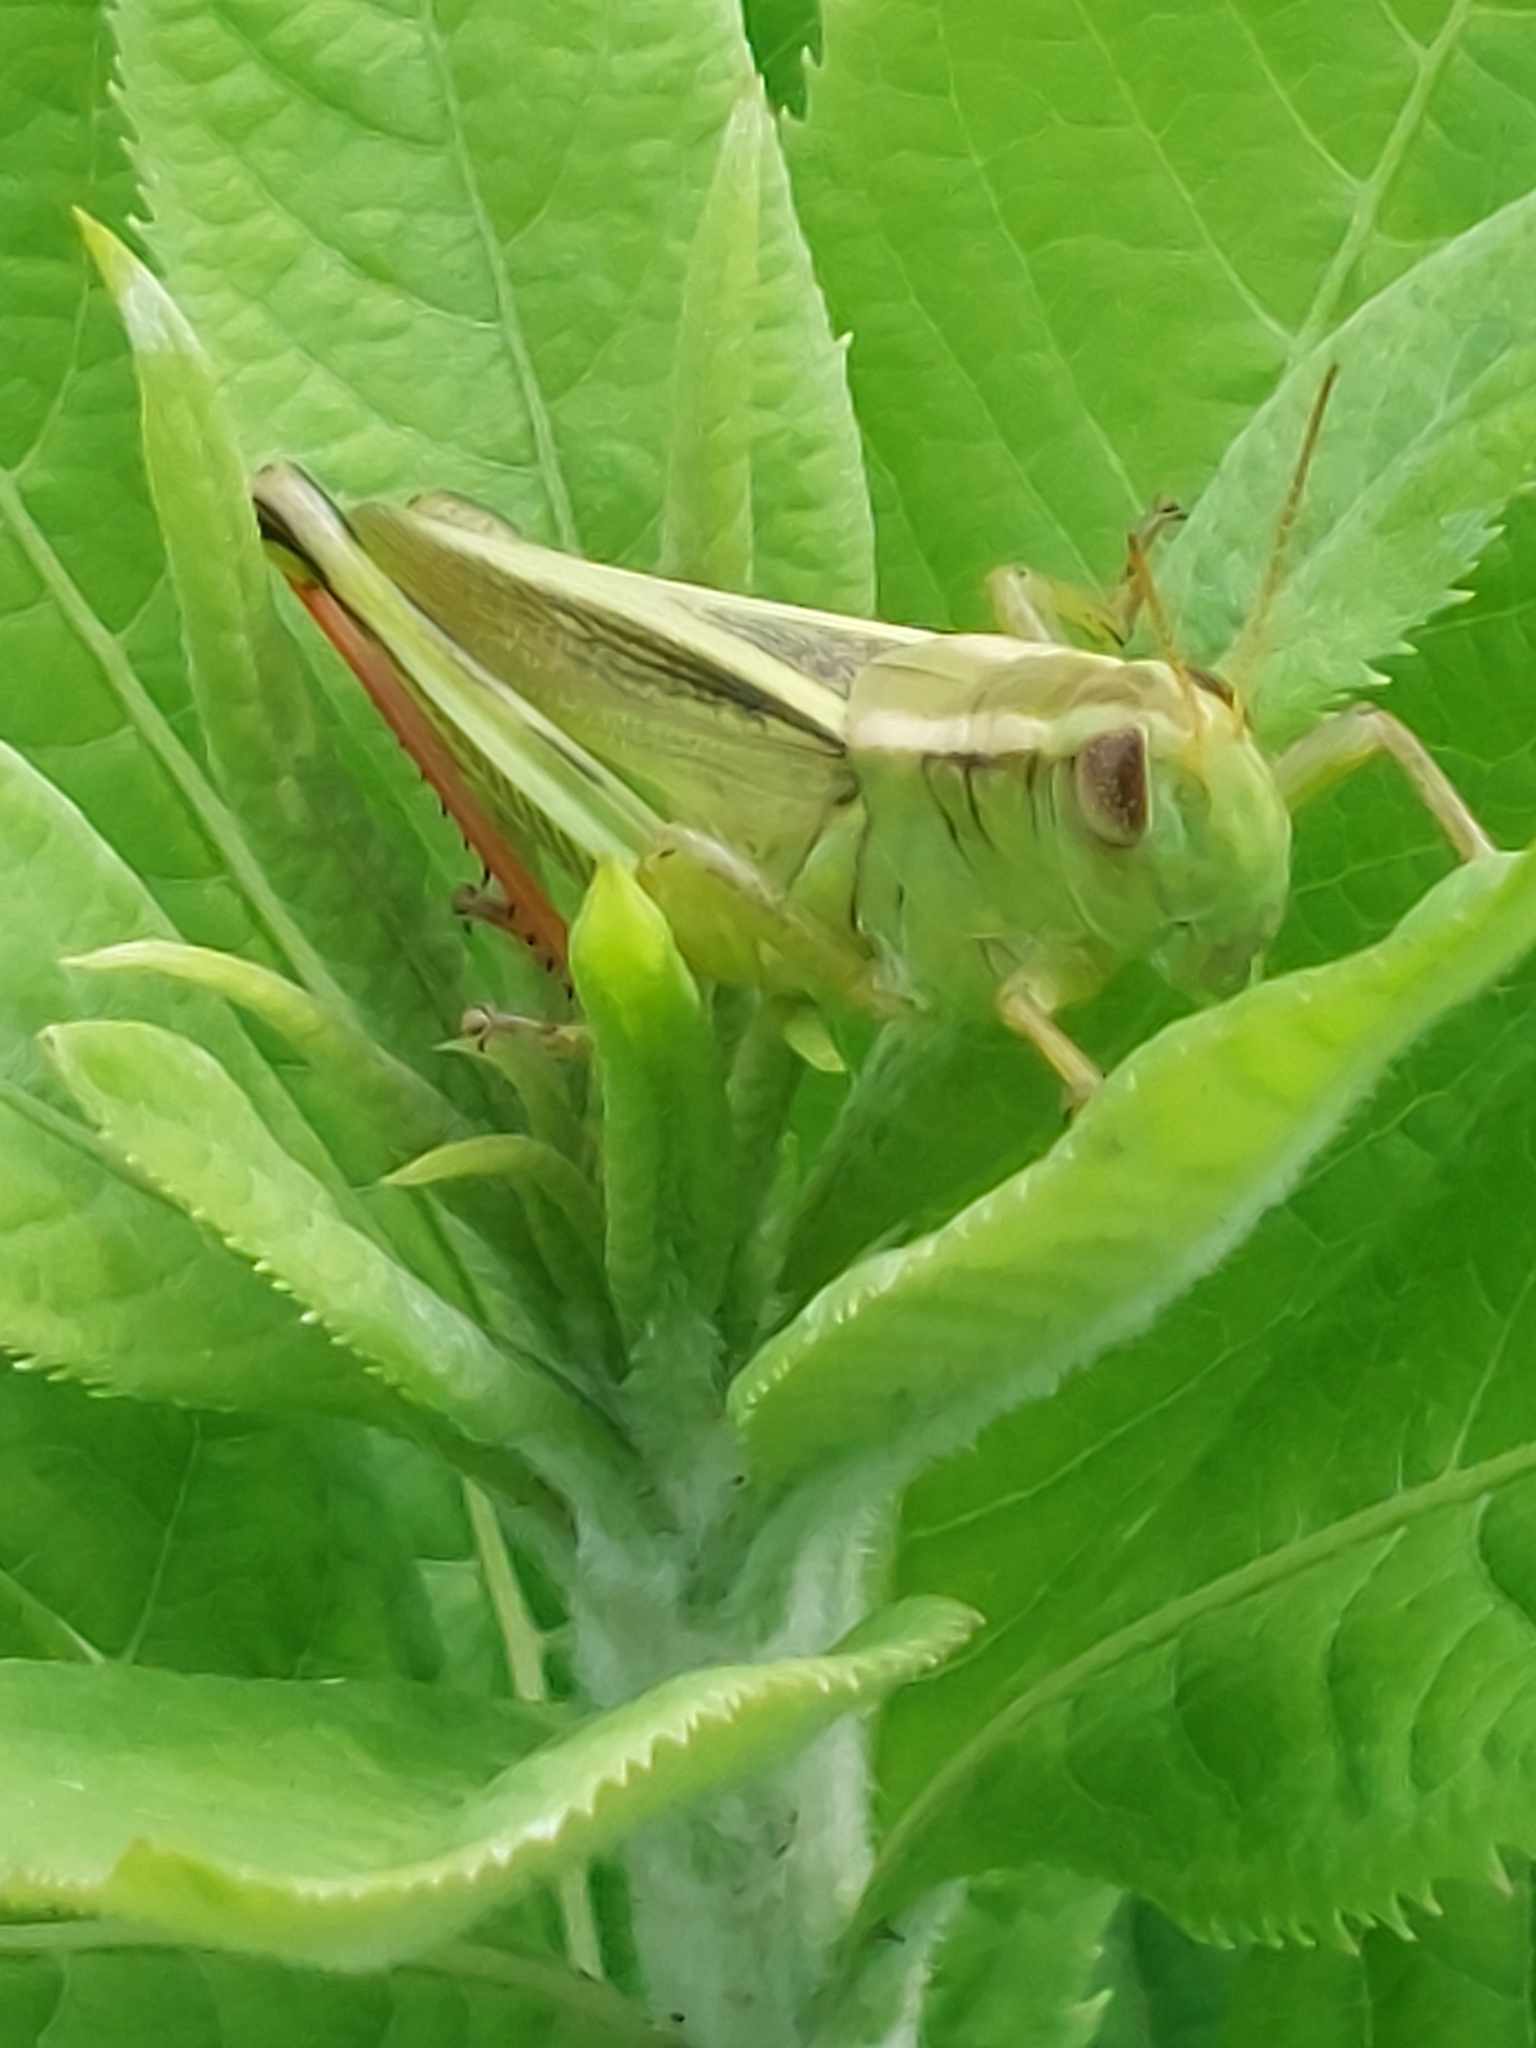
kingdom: Animalia
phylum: Arthropoda
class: Insecta
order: Orthoptera
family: Acrididae
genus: Melanoplus
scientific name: Melanoplus bivittatus
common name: Two-striped grasshopper
